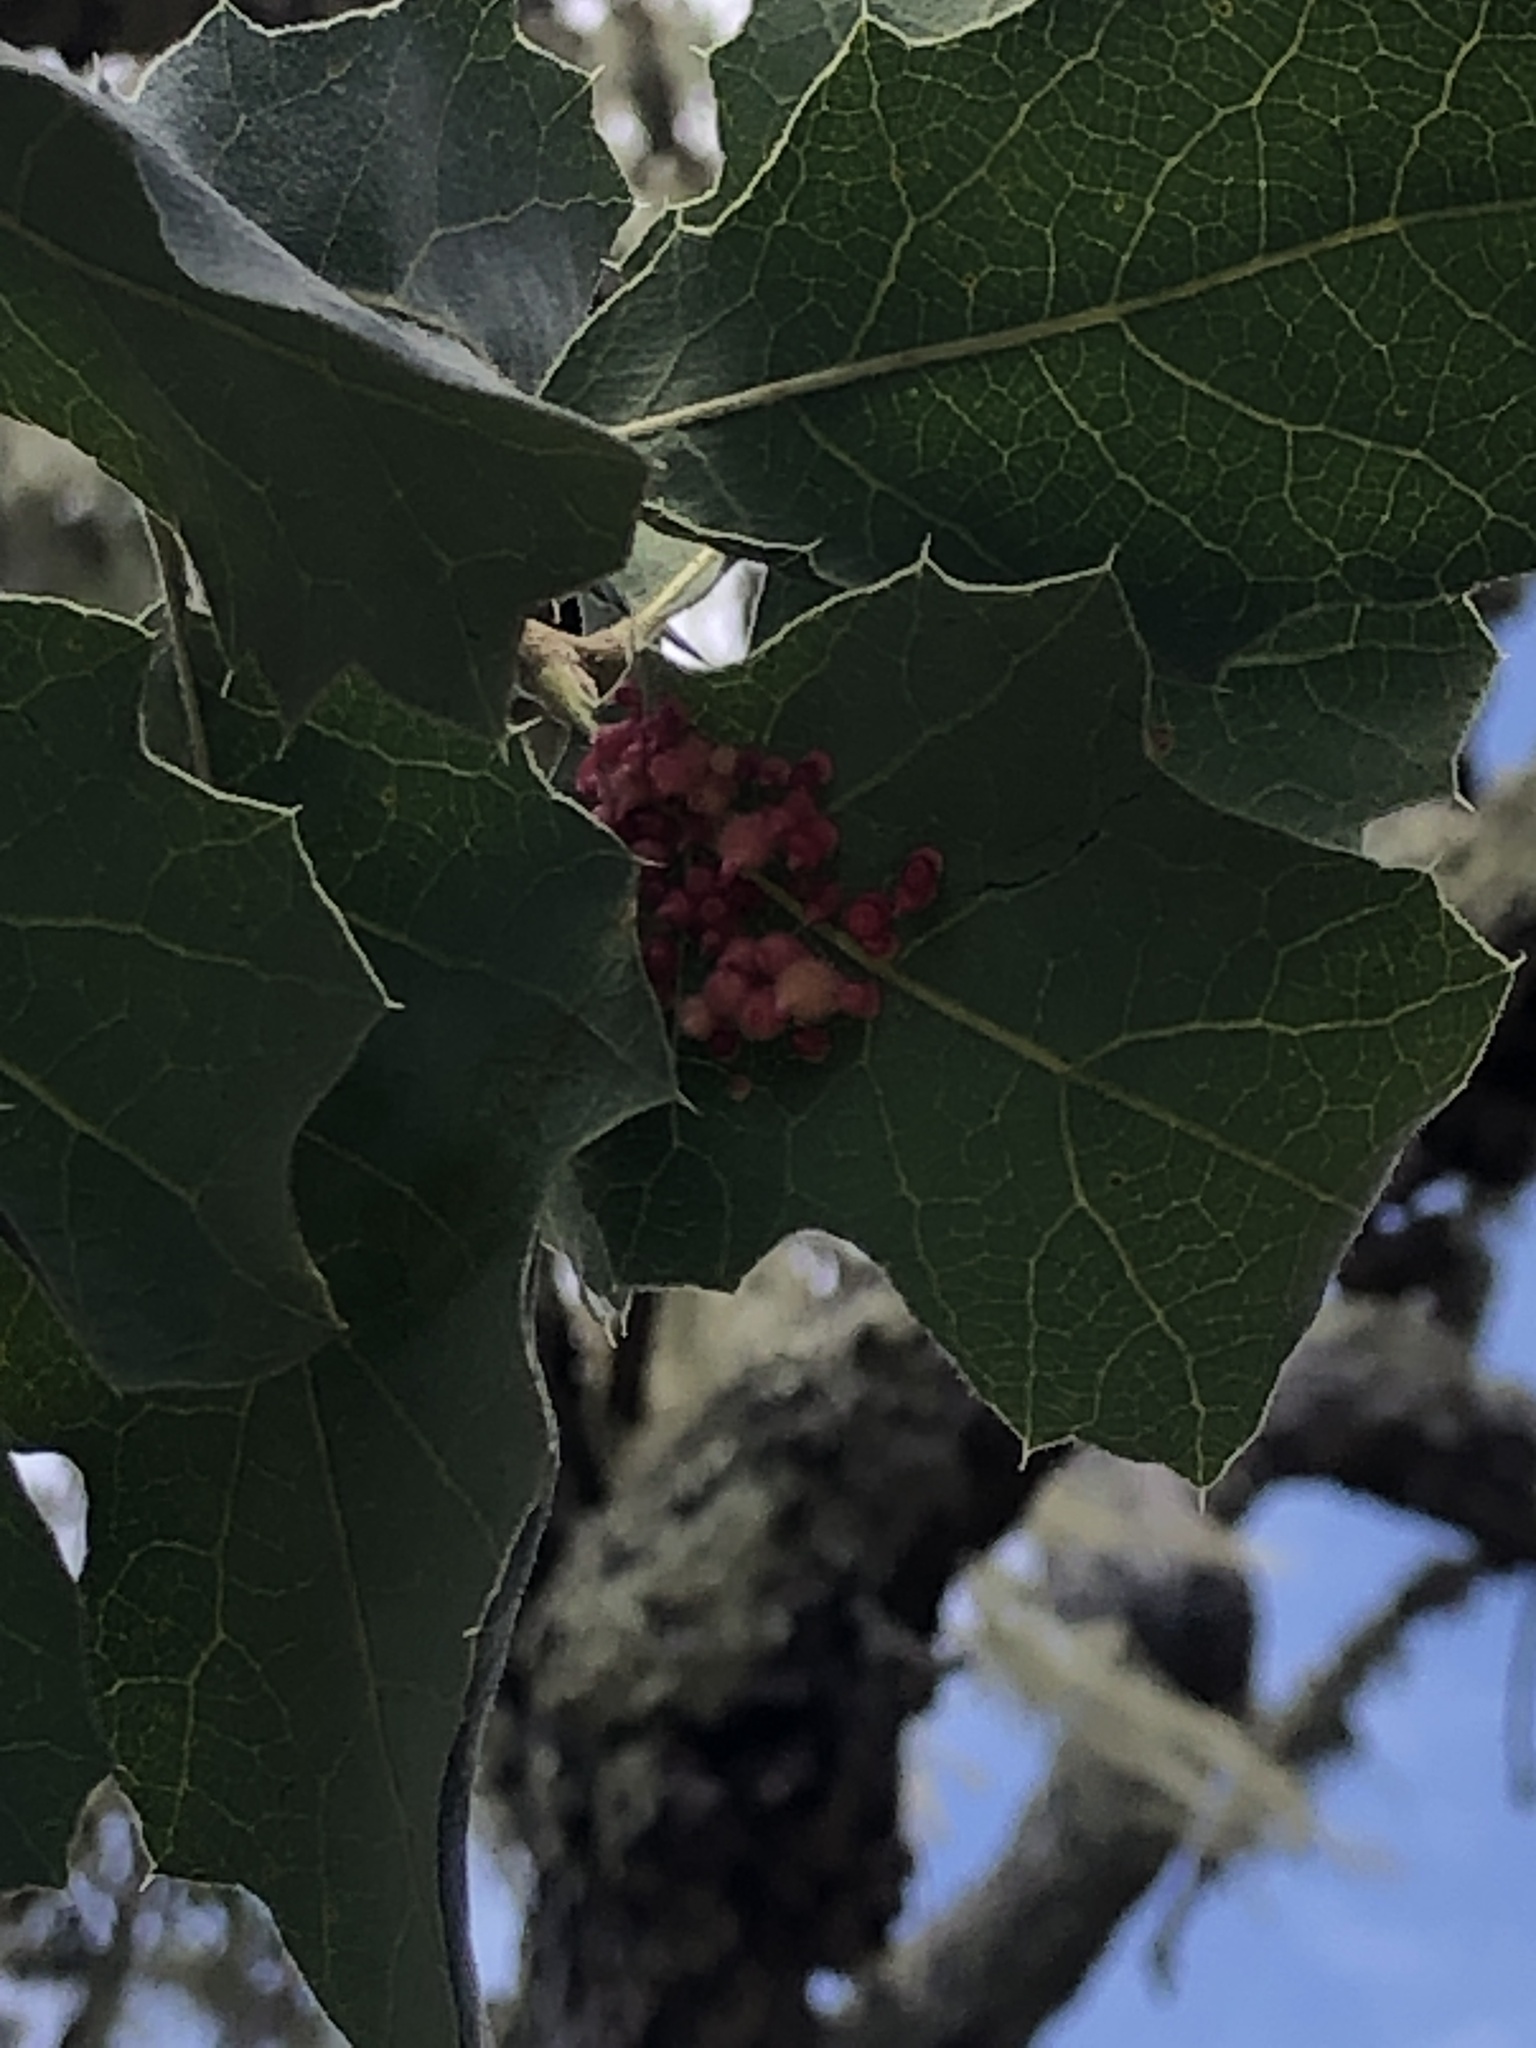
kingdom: Animalia
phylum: Arthropoda
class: Insecta
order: Hymenoptera
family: Cynipidae
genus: Andricus
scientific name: Andricus
